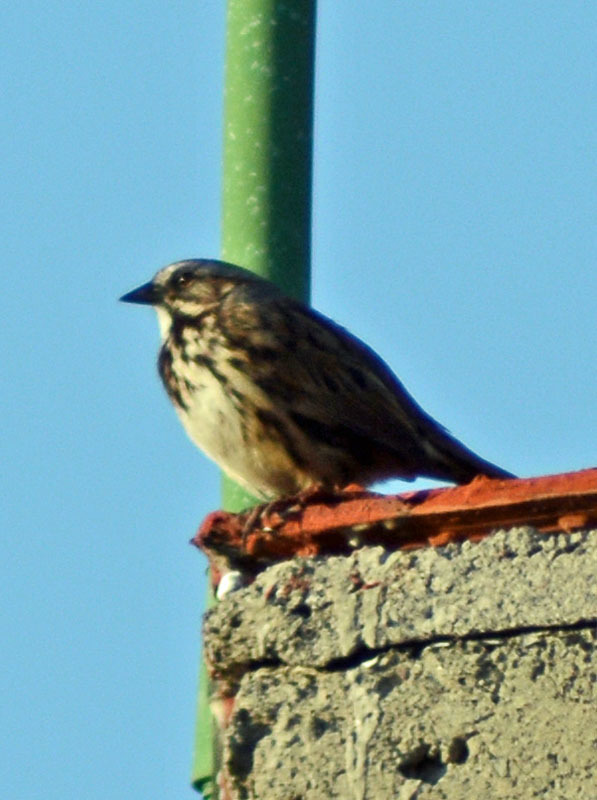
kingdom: Animalia
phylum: Chordata
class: Aves
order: Passeriformes
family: Passerellidae
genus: Melospiza
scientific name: Melospiza melodia
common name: Song sparrow
